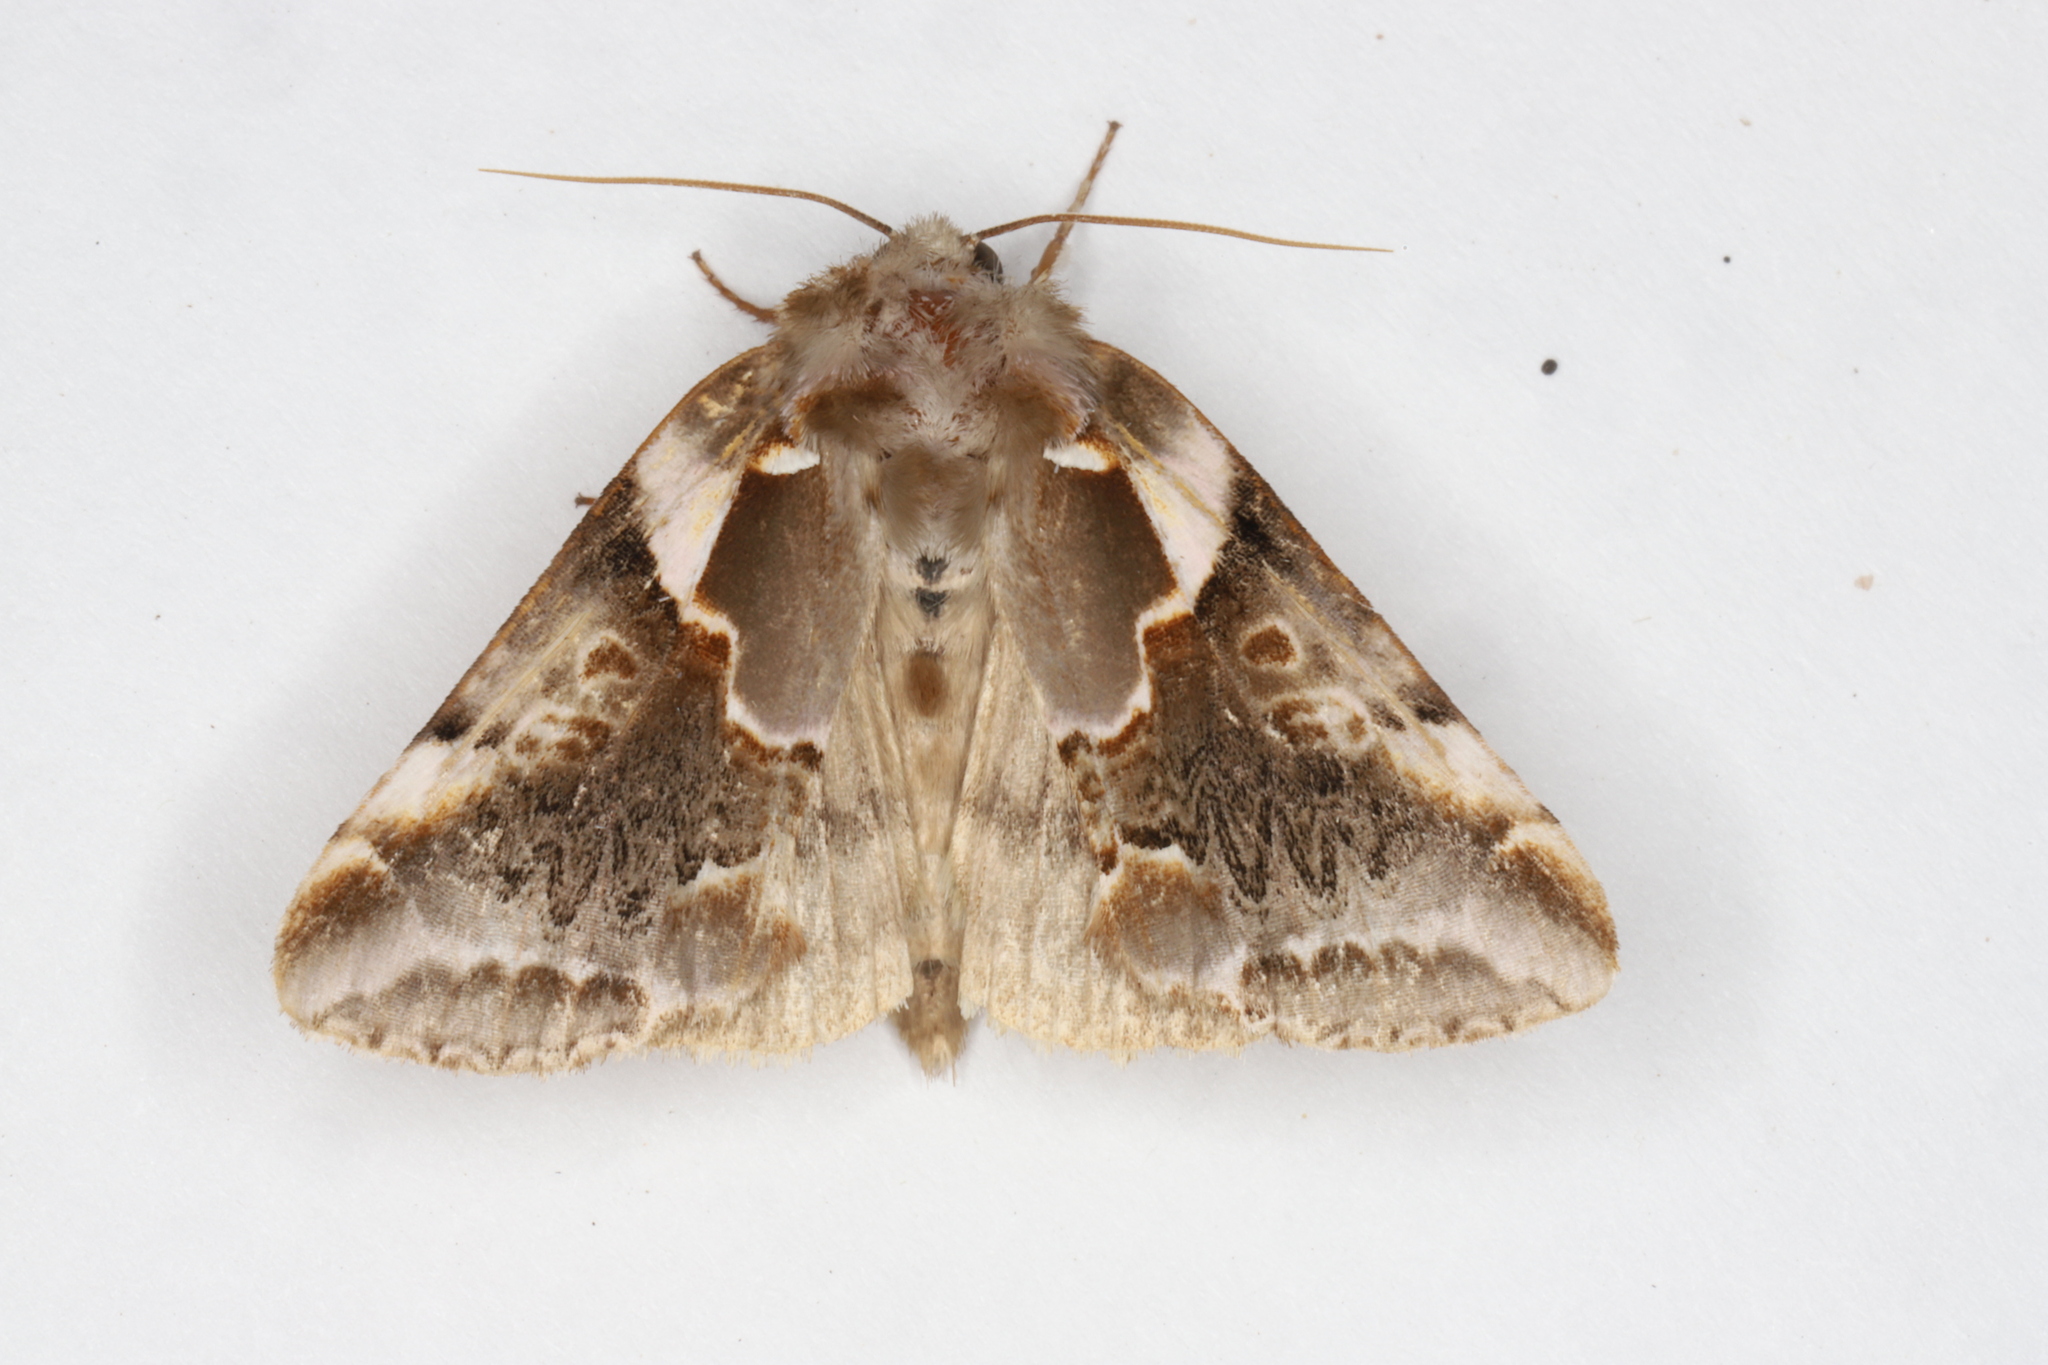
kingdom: Animalia
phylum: Arthropoda
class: Insecta
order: Lepidoptera
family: Drepanidae
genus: Habrosyne
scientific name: Habrosyne gloriosa
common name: Glorious habrosyne moth
